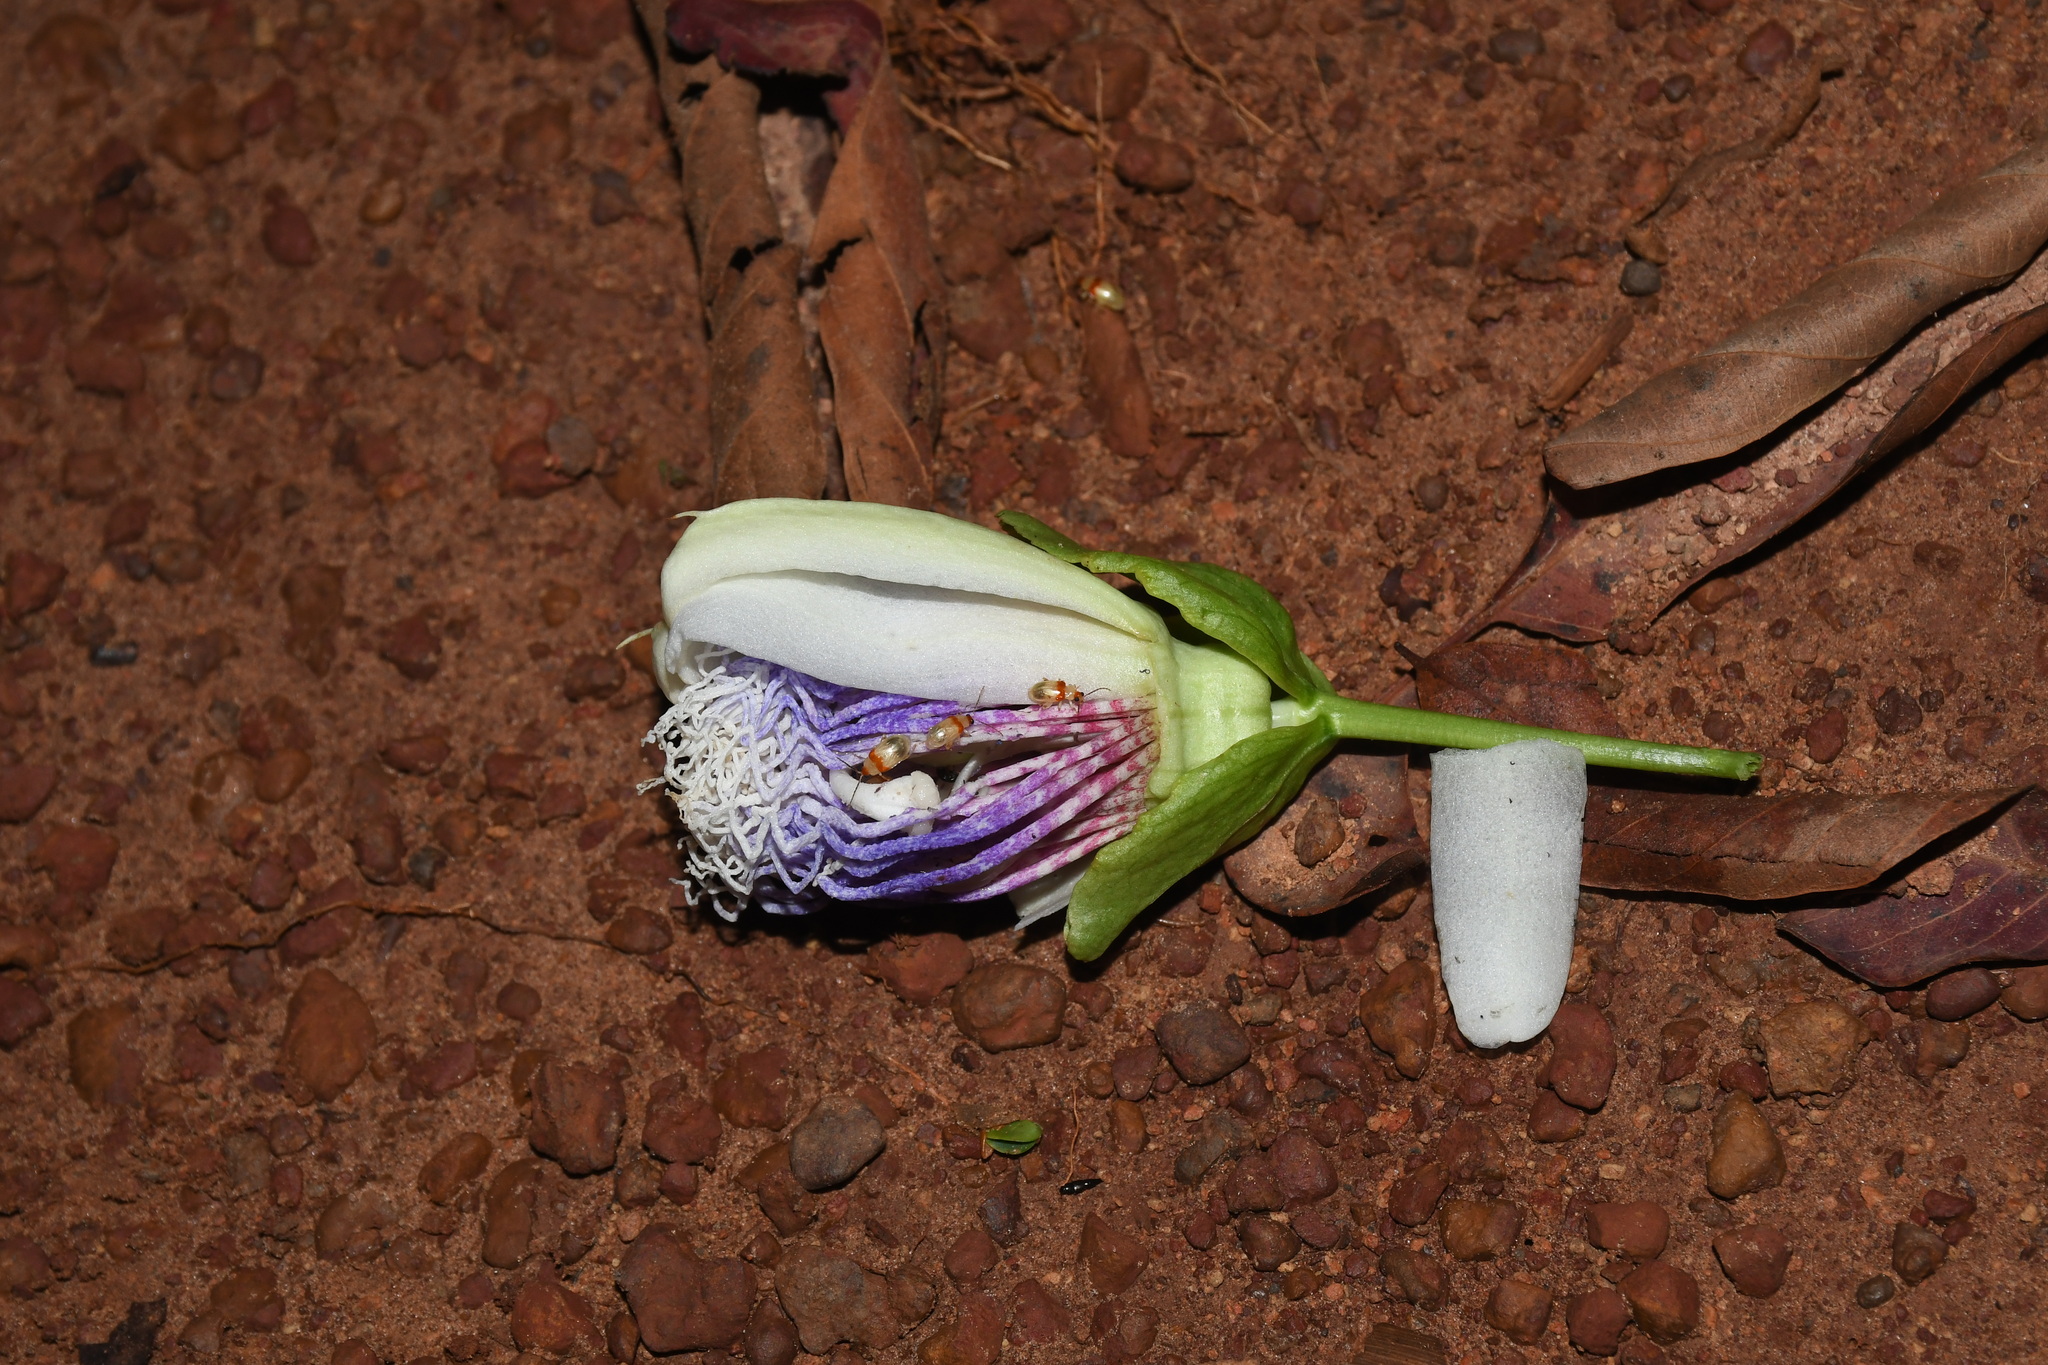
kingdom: Plantae
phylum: Tracheophyta
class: Magnoliopsida
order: Malpighiales
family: Passifloraceae
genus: Passiflora
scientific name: Passiflora nitida
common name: Bell-apple
